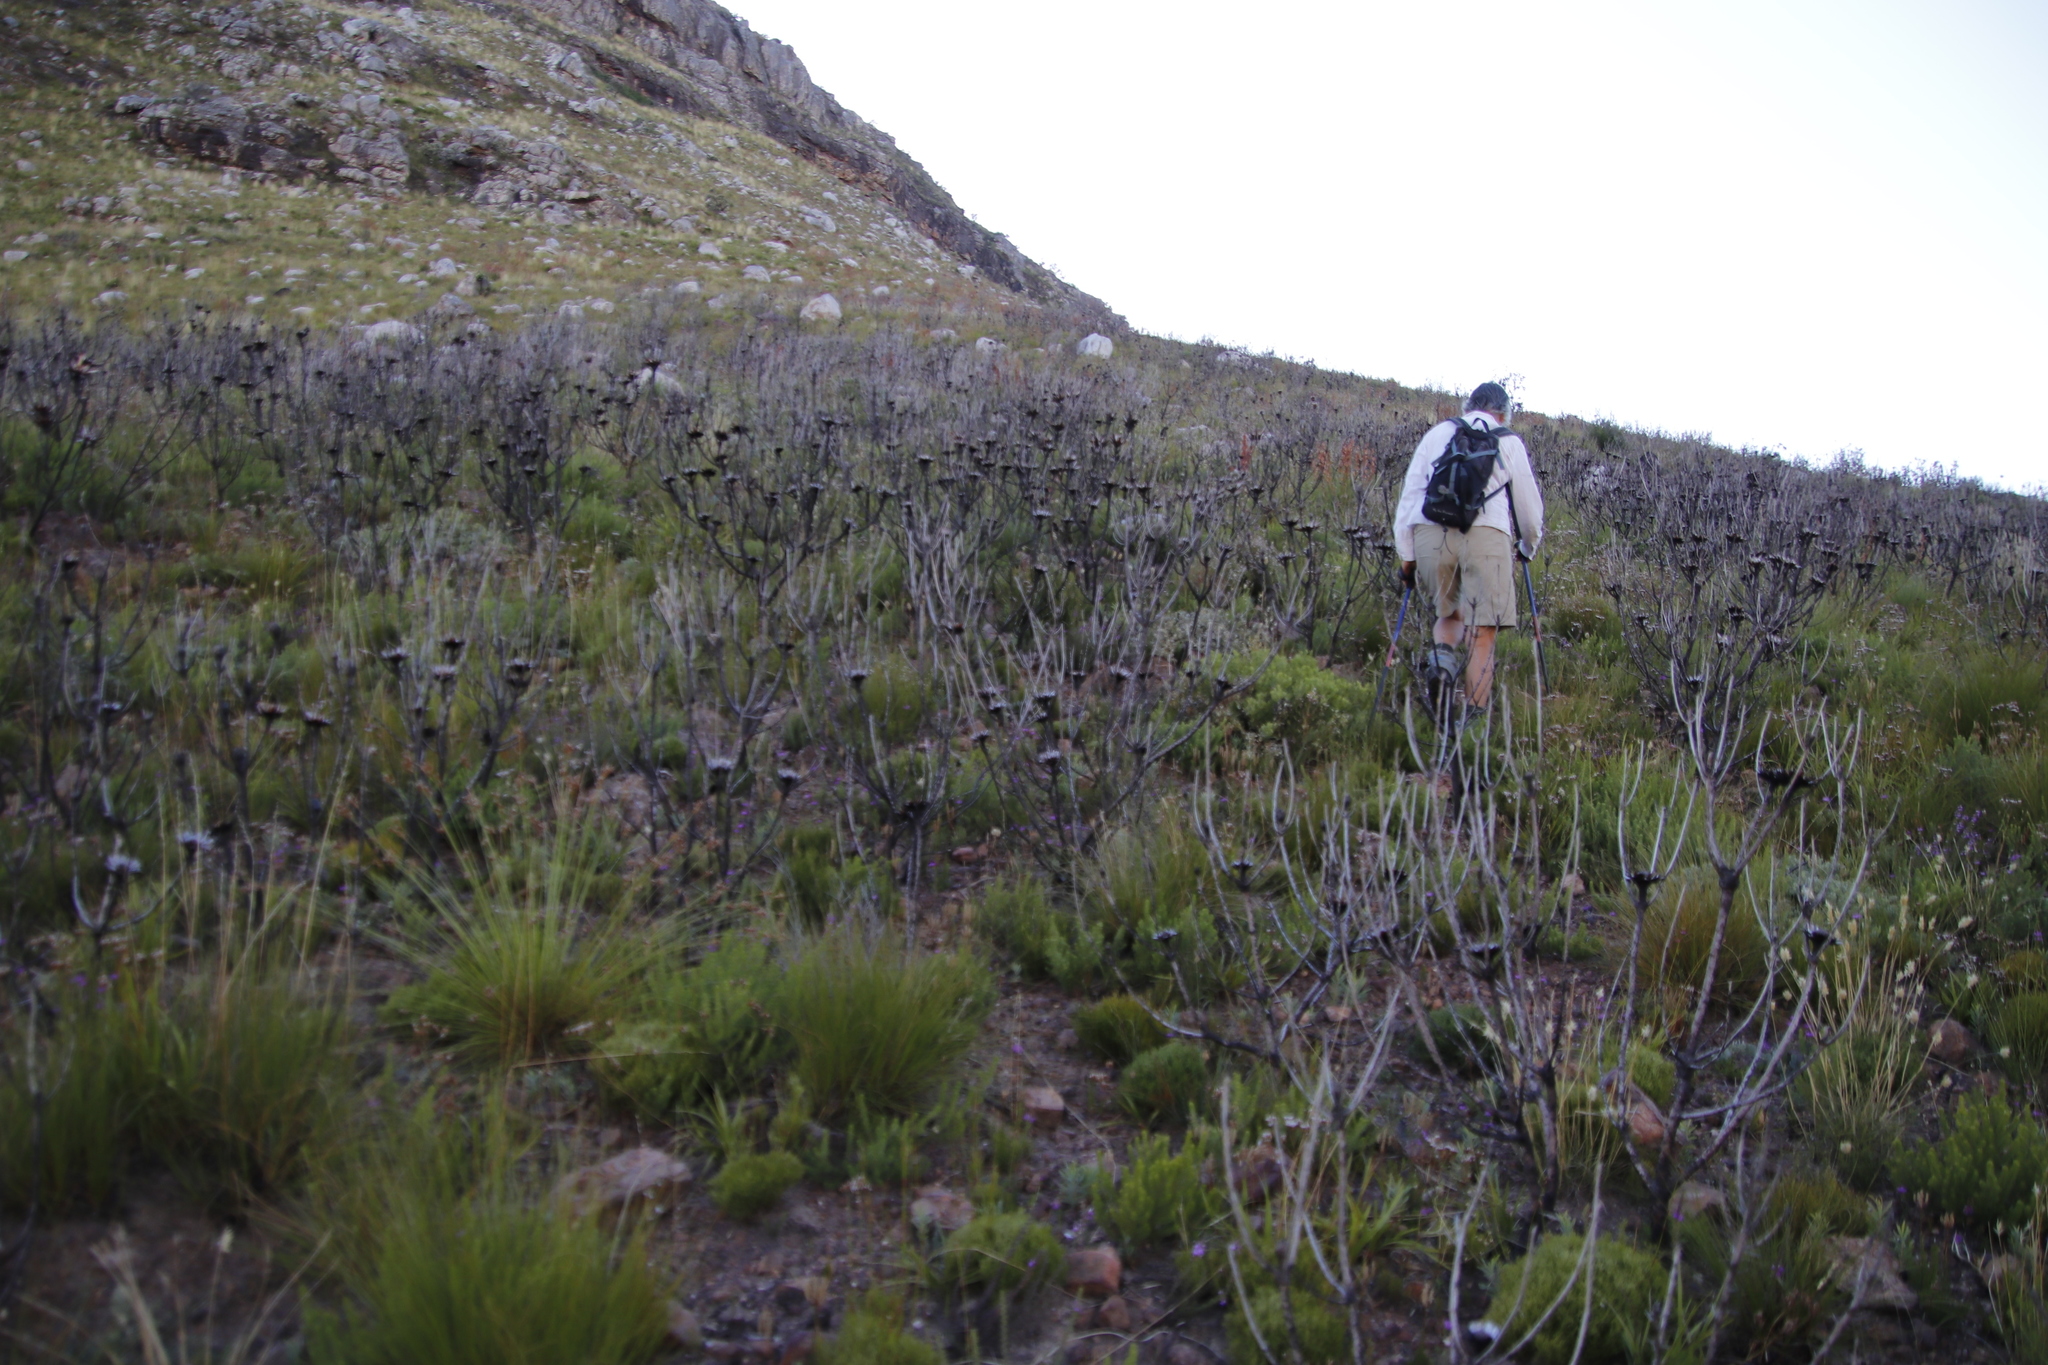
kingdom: Plantae
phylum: Tracheophyta
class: Magnoliopsida
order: Proteales
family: Proteaceae
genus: Protea
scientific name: Protea repens
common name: Sugarbush
